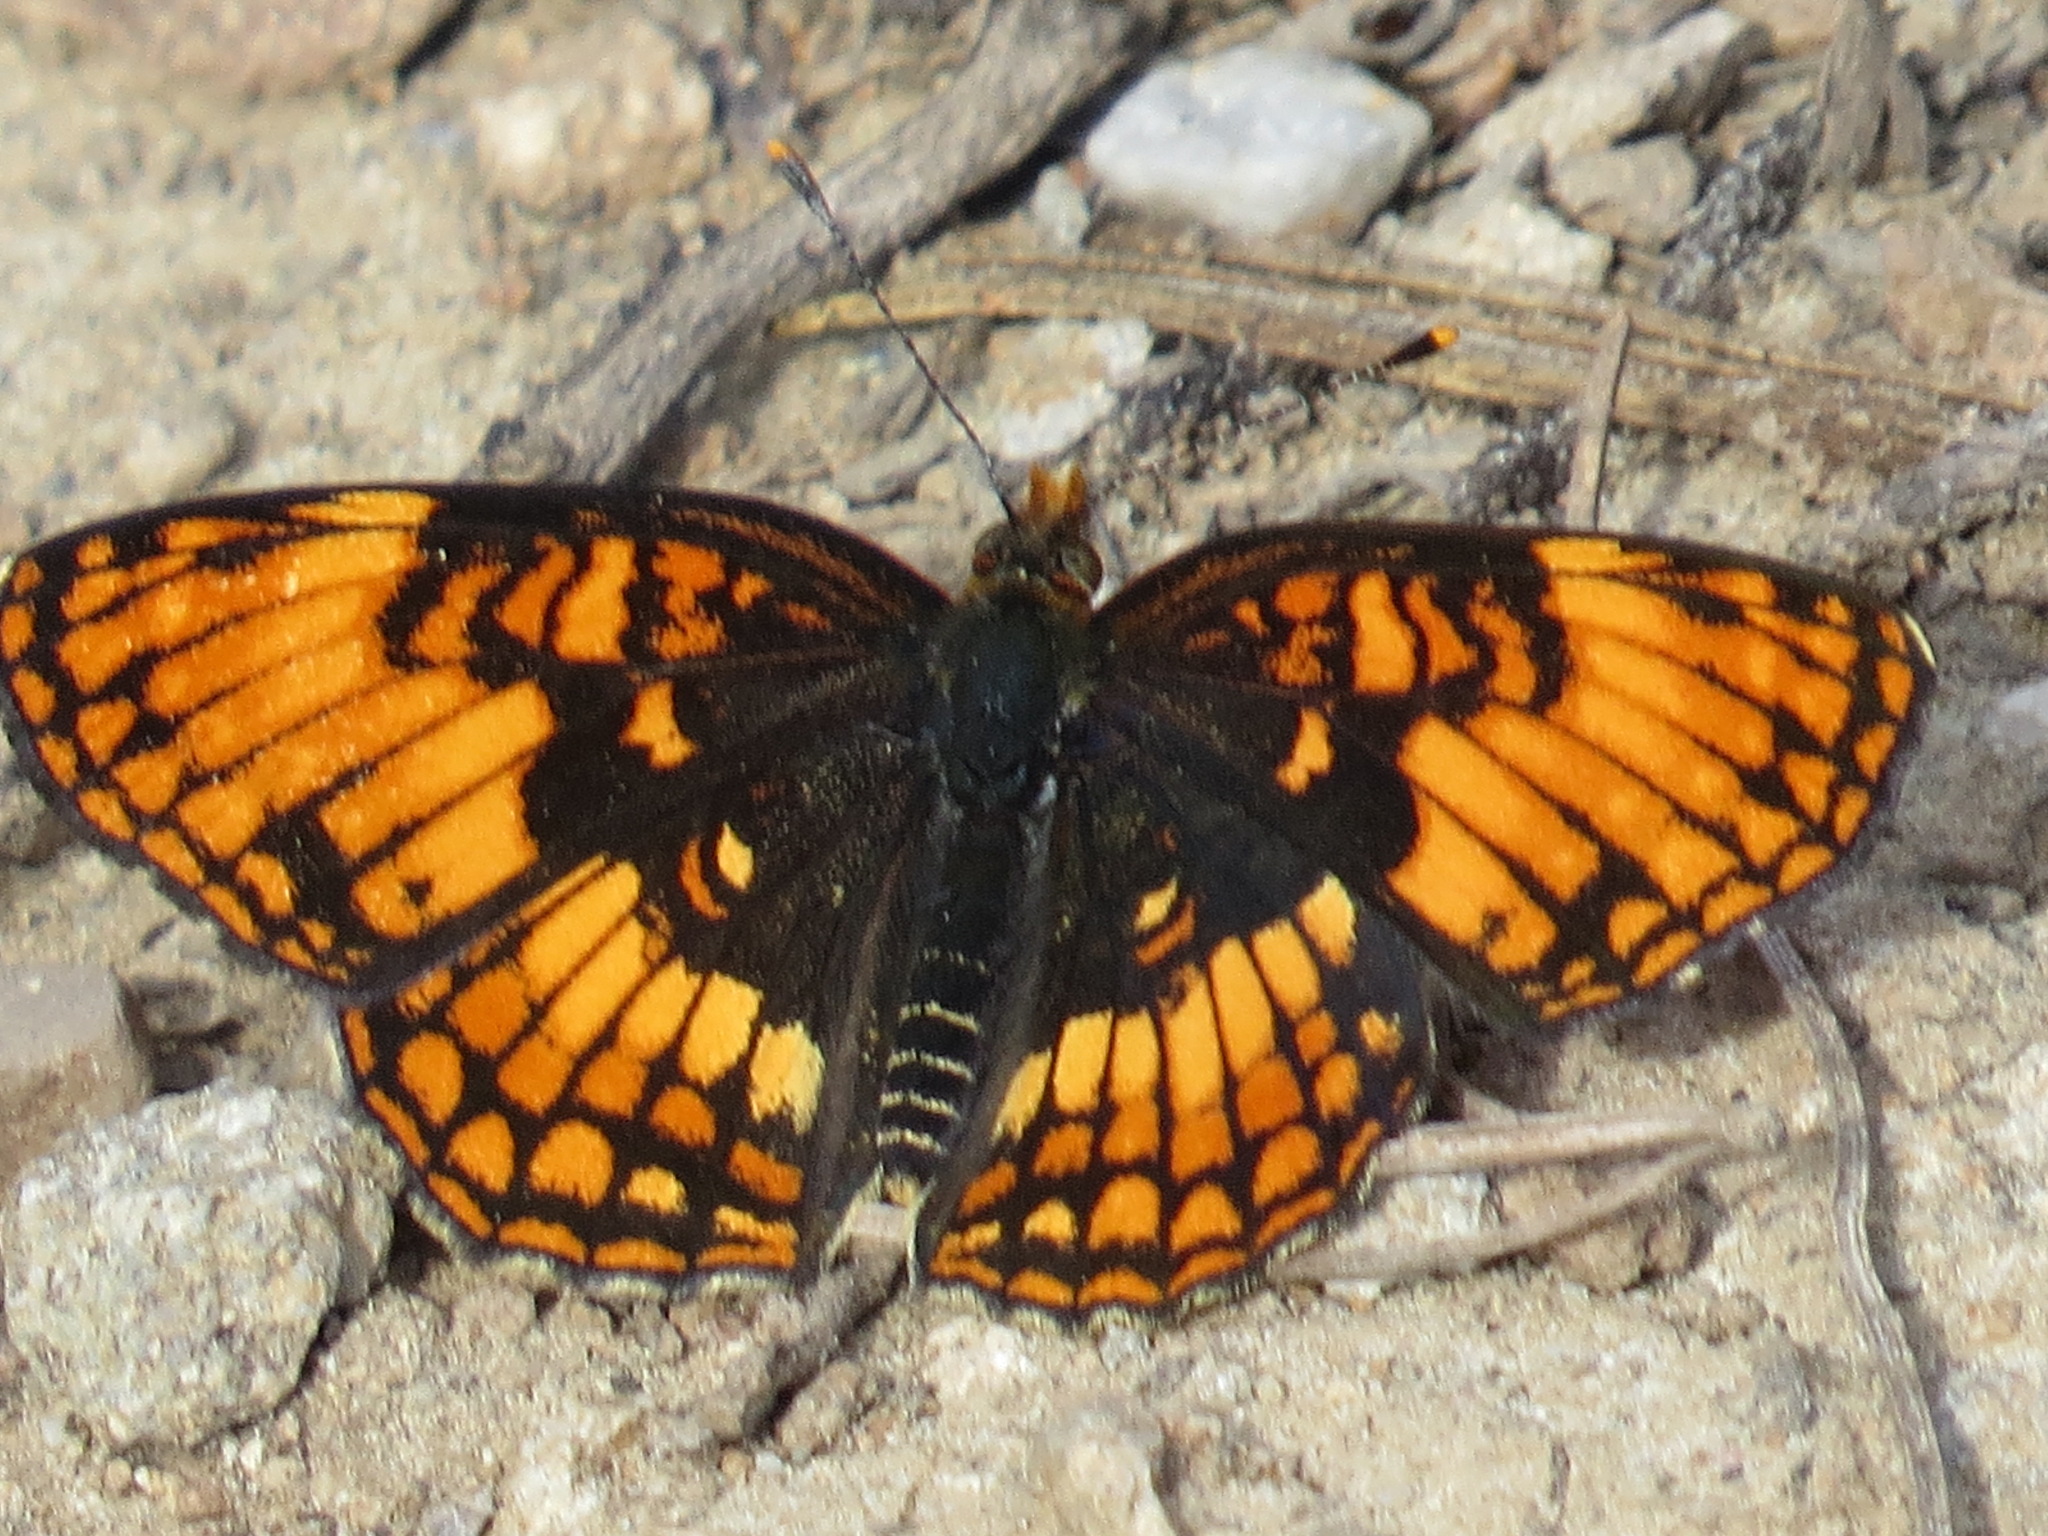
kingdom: Animalia
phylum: Arthropoda
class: Insecta
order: Lepidoptera
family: Nymphalidae
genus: Chlosyne
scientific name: Chlosyne hoffmanni
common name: Hoffmann's checkerspot
